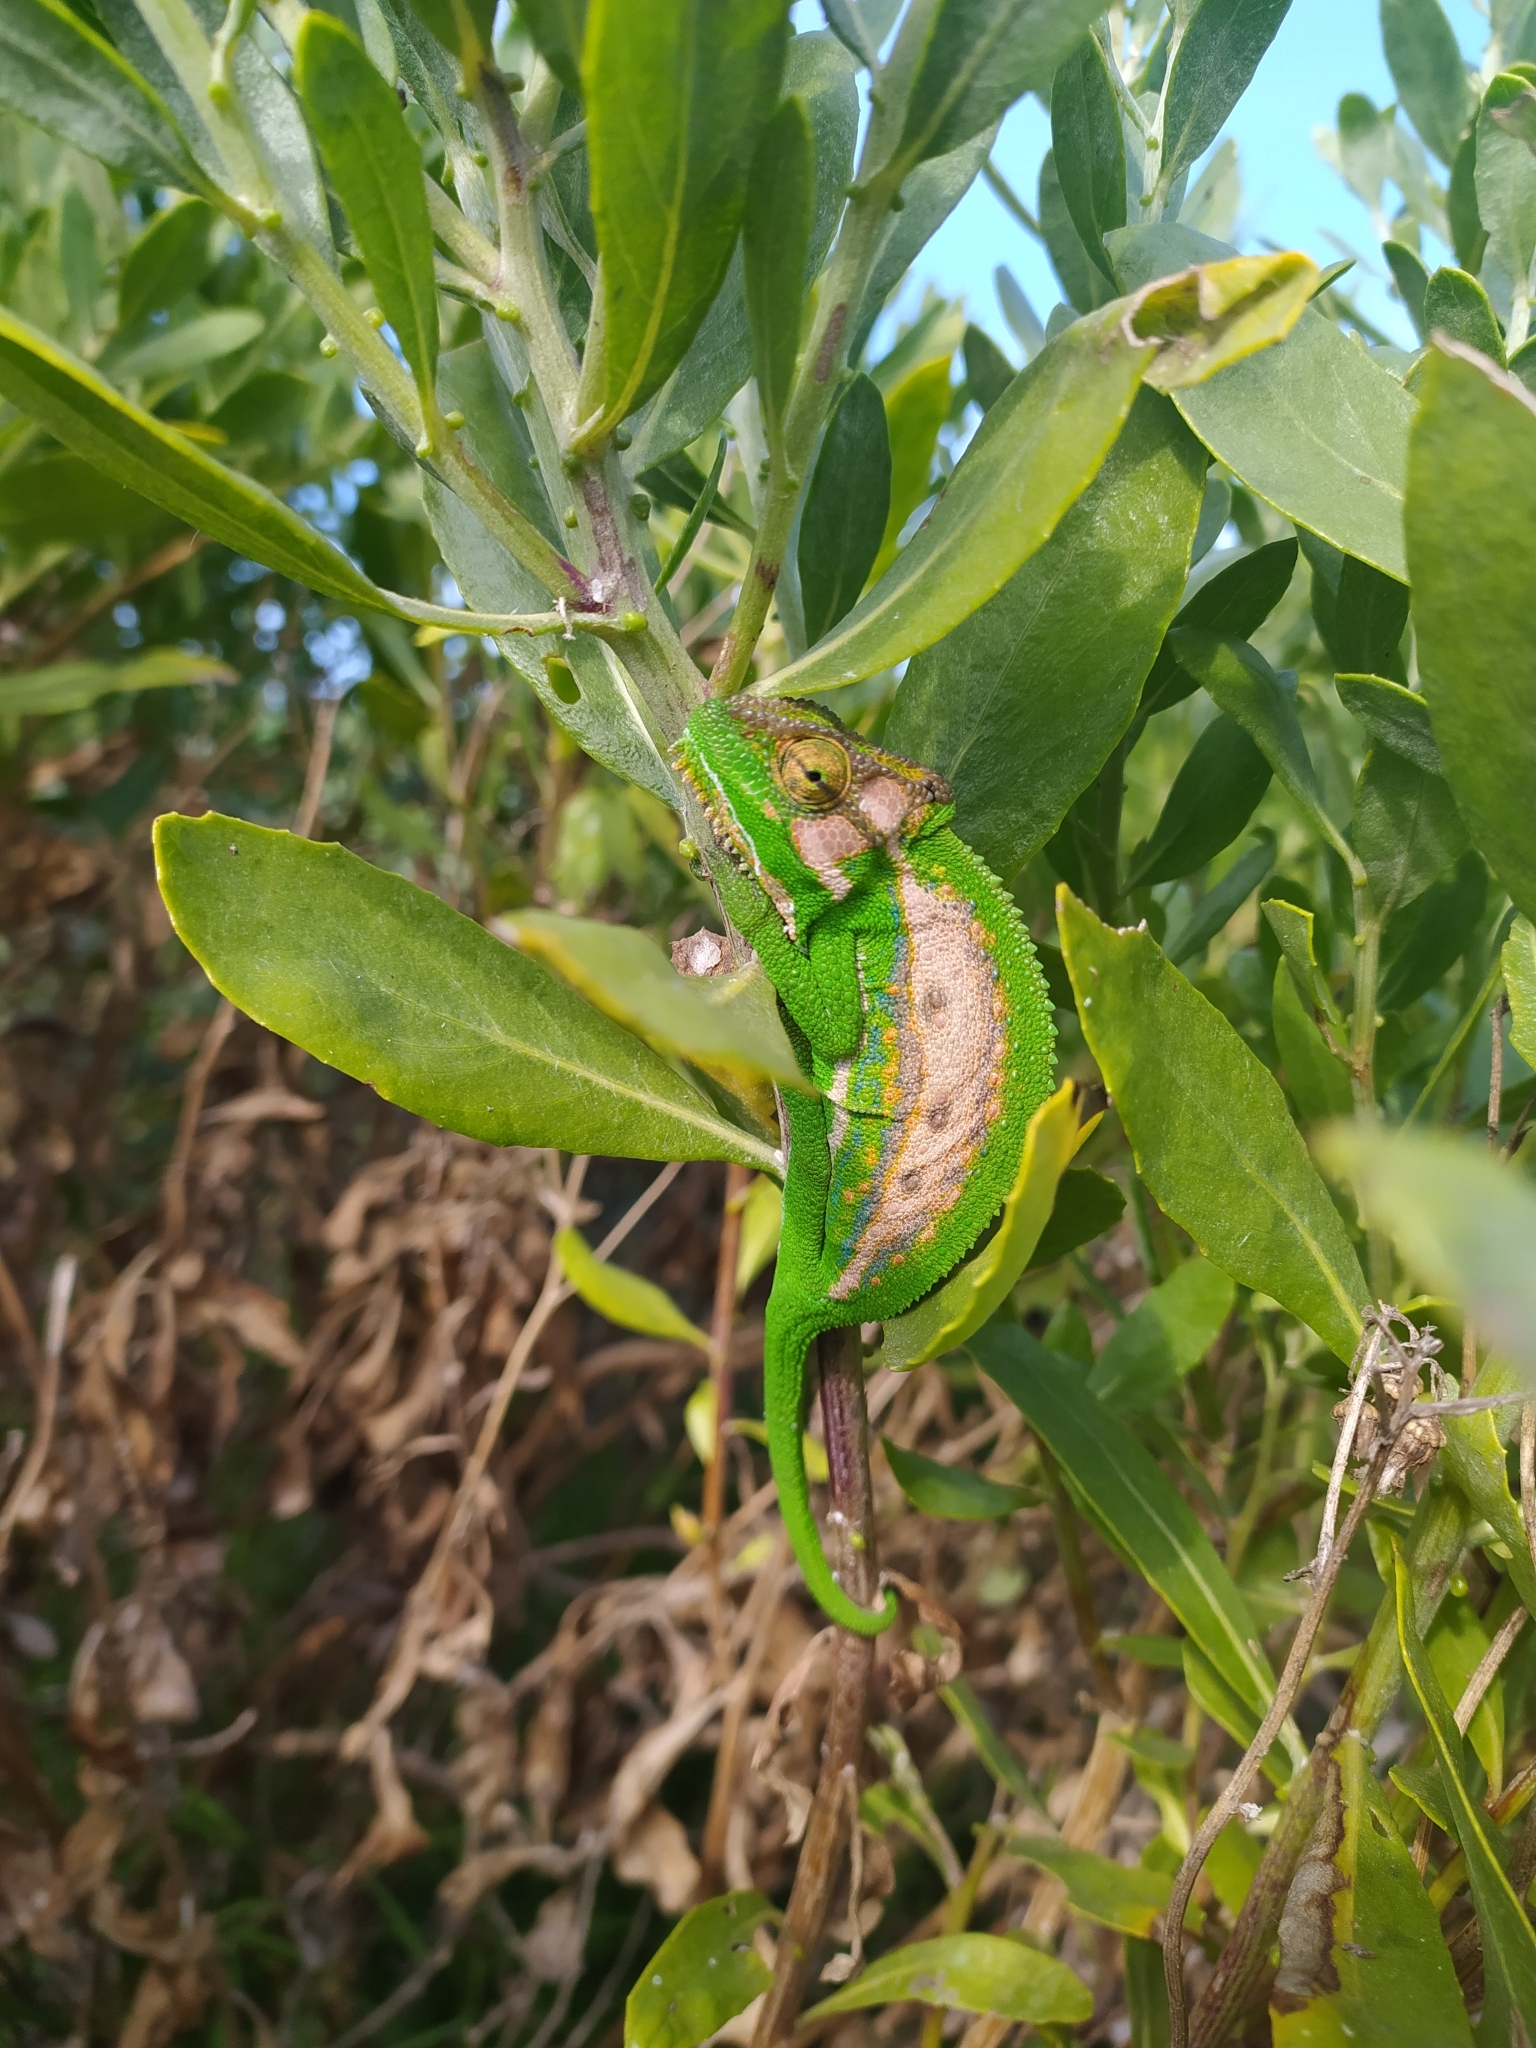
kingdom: Animalia
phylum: Chordata
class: Squamata
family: Chamaeleonidae
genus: Bradypodion
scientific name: Bradypodion pumilum
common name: Cape dwarf chameleon
